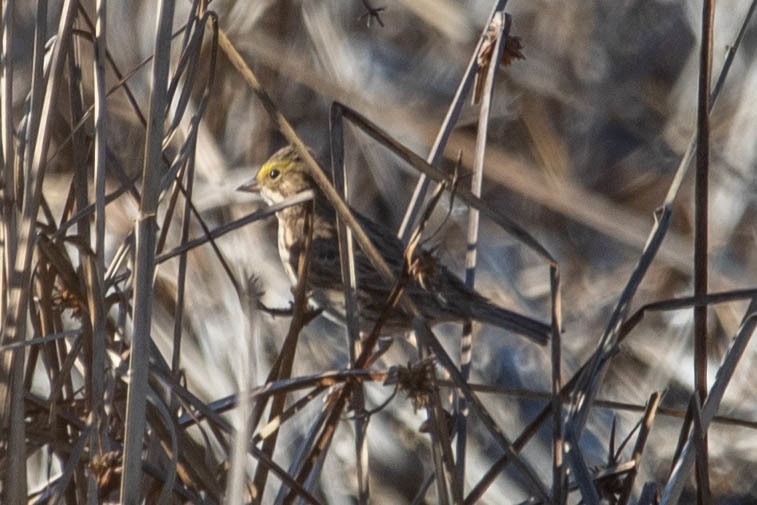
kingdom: Animalia
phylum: Chordata
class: Aves
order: Passeriformes
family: Passerellidae
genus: Passerculus
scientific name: Passerculus sandwichensis
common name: Savannah sparrow
